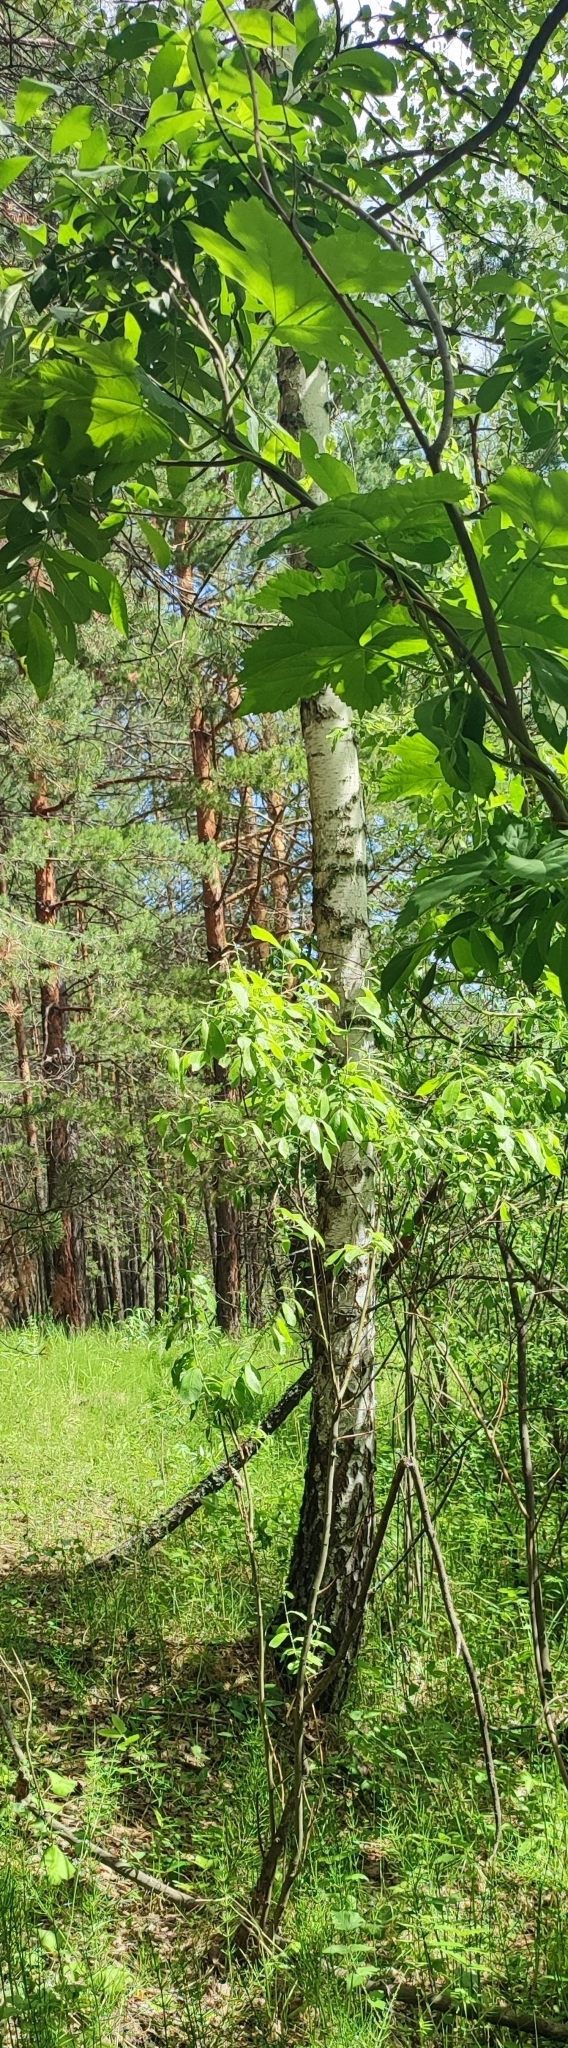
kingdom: Plantae
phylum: Tracheophyta
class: Magnoliopsida
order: Fagales
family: Betulaceae
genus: Betula
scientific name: Betula pendula
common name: Silver birch
